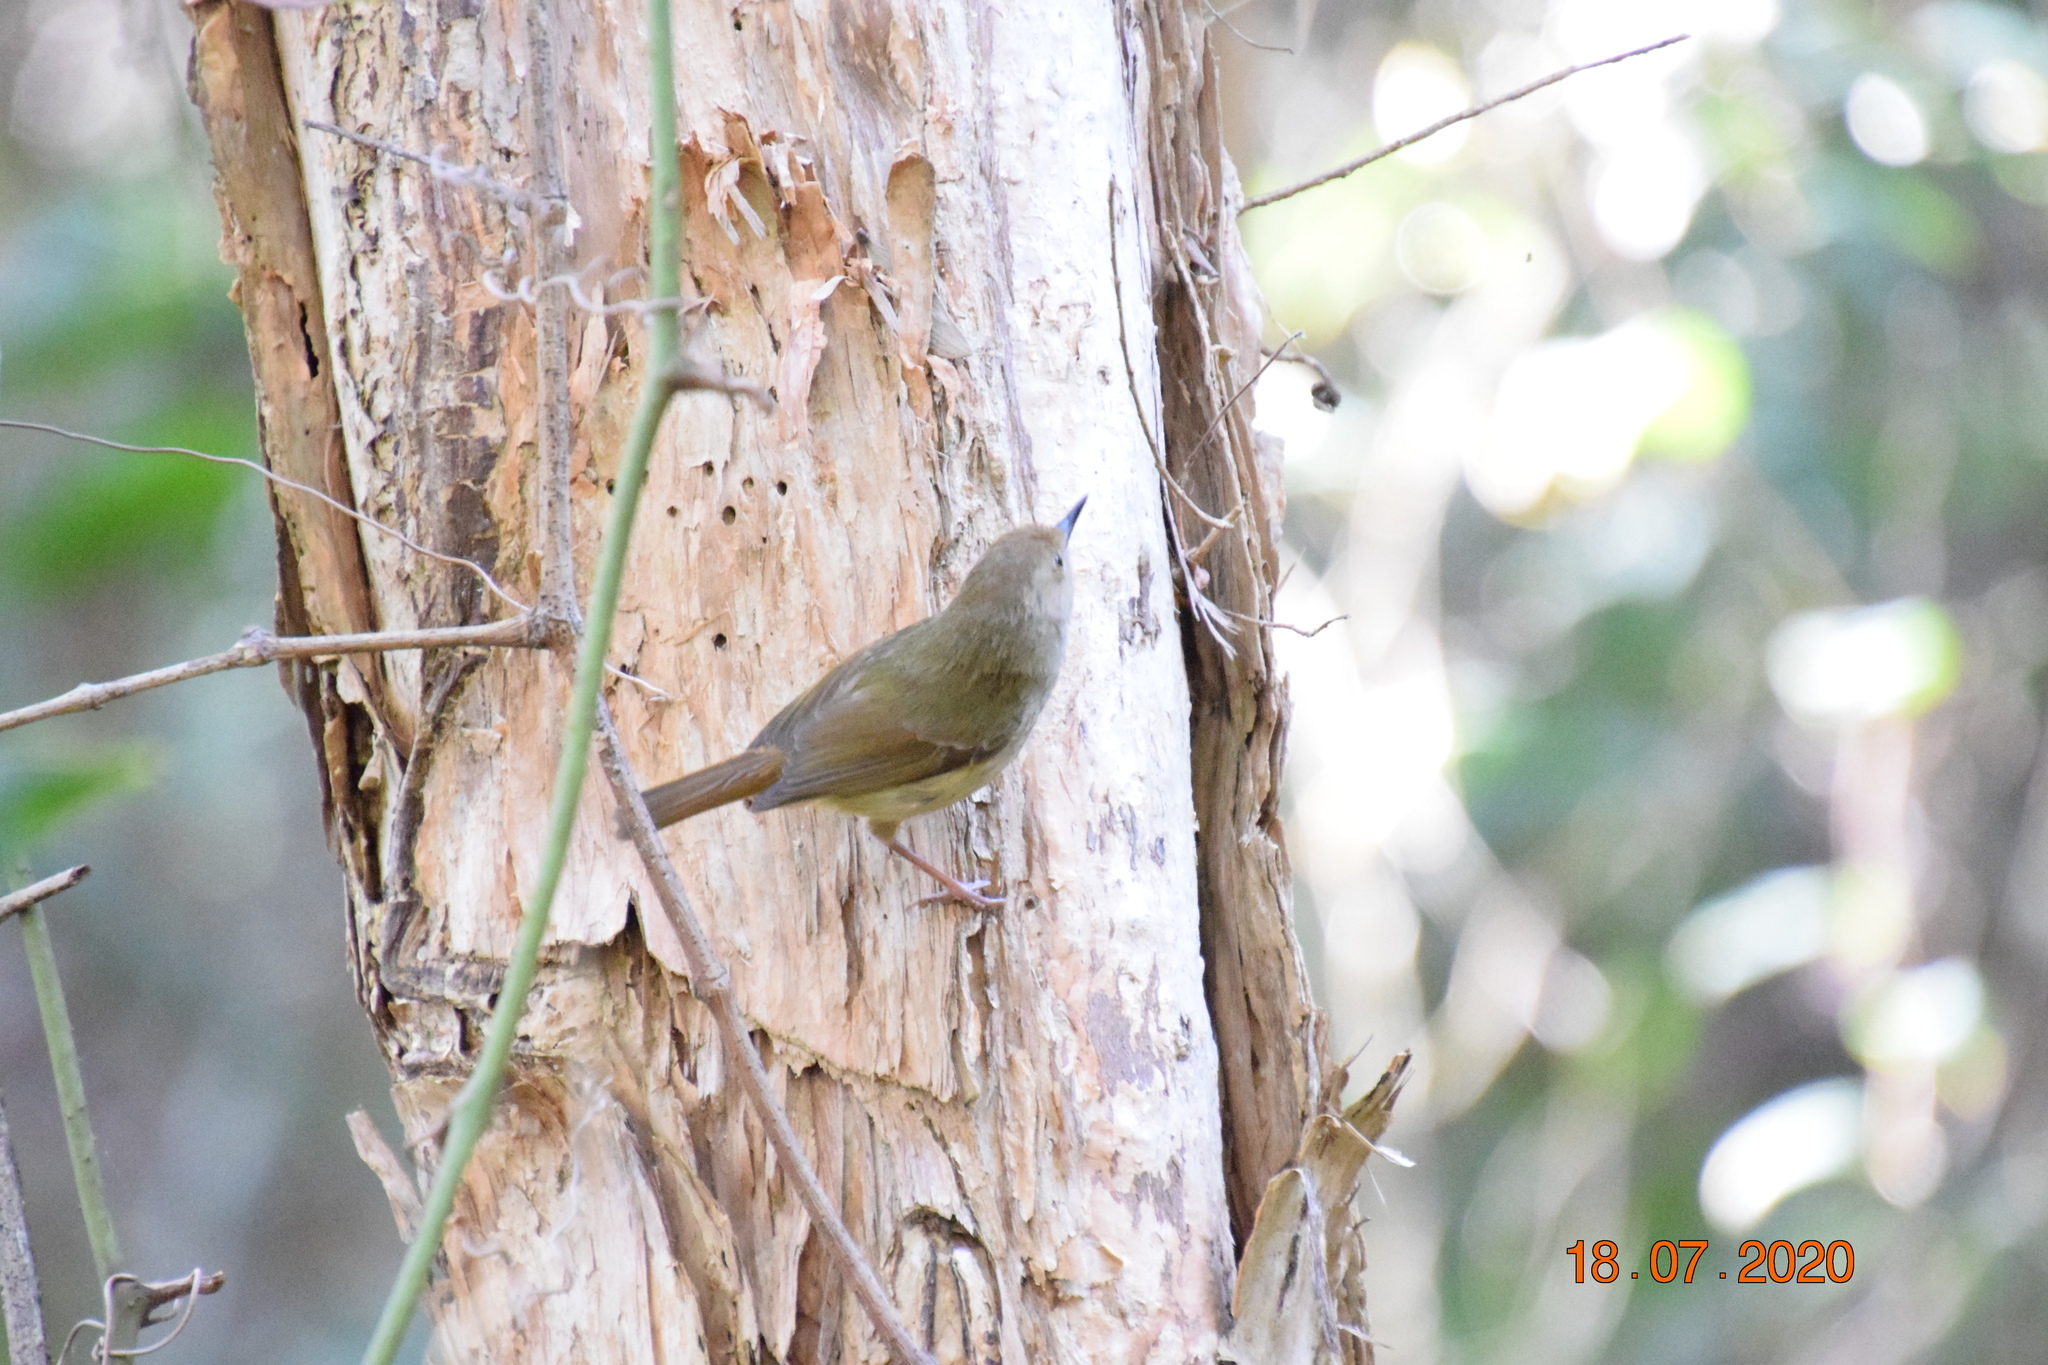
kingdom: Animalia
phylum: Chordata
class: Aves
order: Passeriformes
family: Acanthizidae
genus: Sericornis
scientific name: Sericornis magnirostra
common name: Large-billed scrubwren
